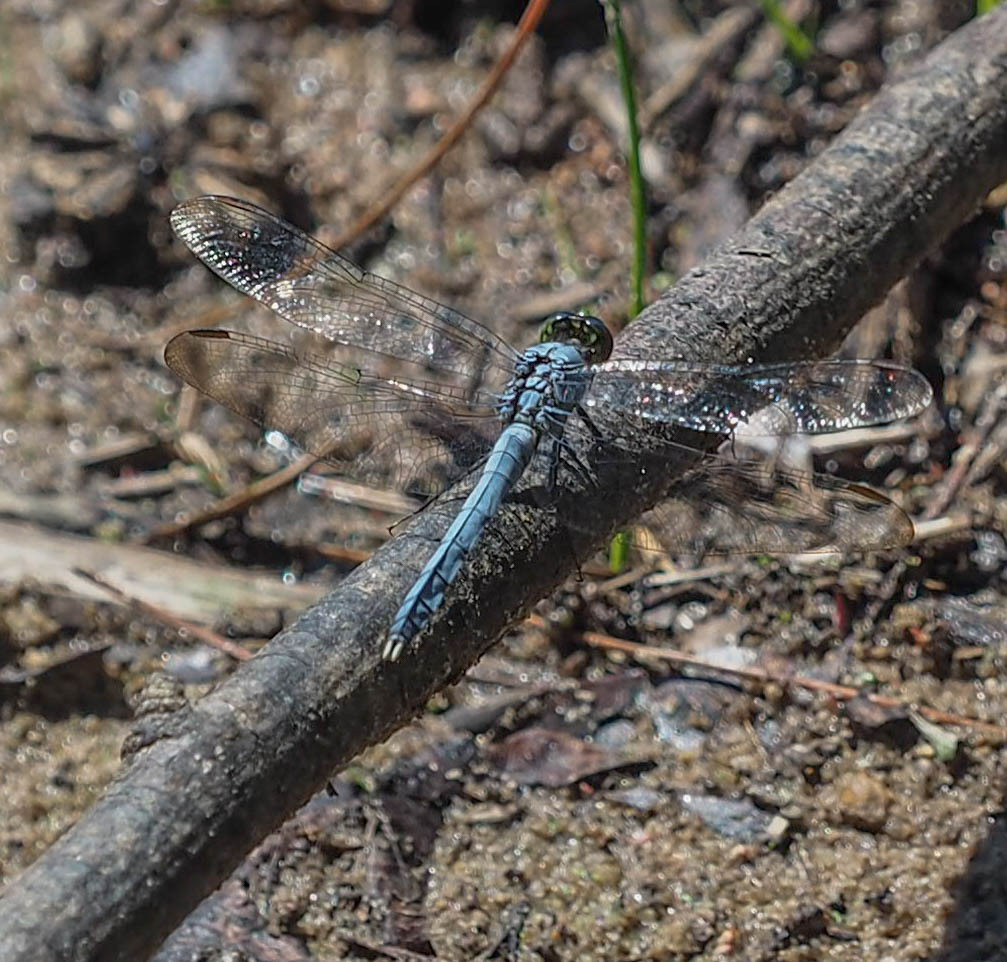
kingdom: Animalia
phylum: Arthropoda
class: Insecta
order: Odonata
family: Libellulidae
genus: Erythemis
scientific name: Erythemis simplicicollis
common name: Eastern pondhawk
